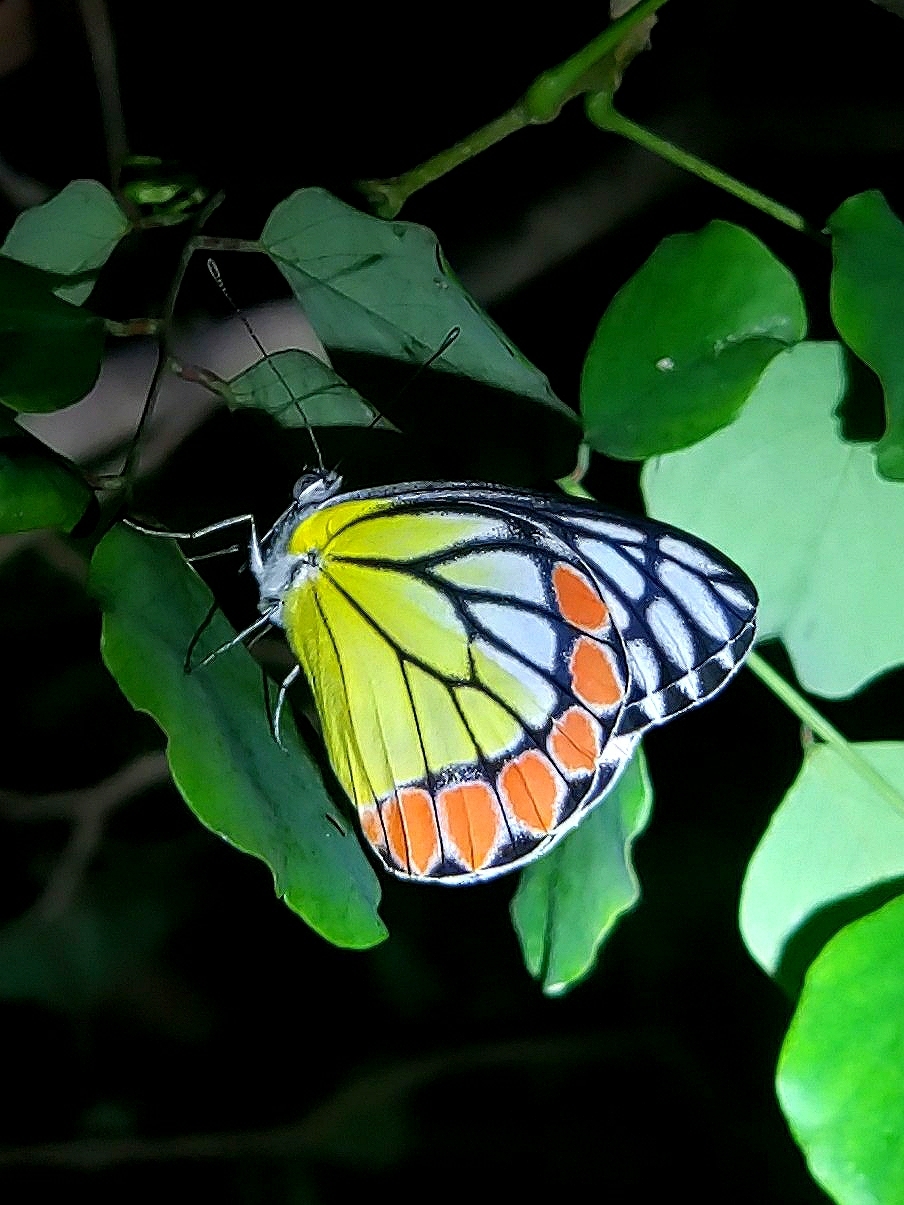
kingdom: Animalia
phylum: Arthropoda
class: Insecta
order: Lepidoptera
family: Pieridae
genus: Delias
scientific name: Delias eucharis
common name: Common jezebel
